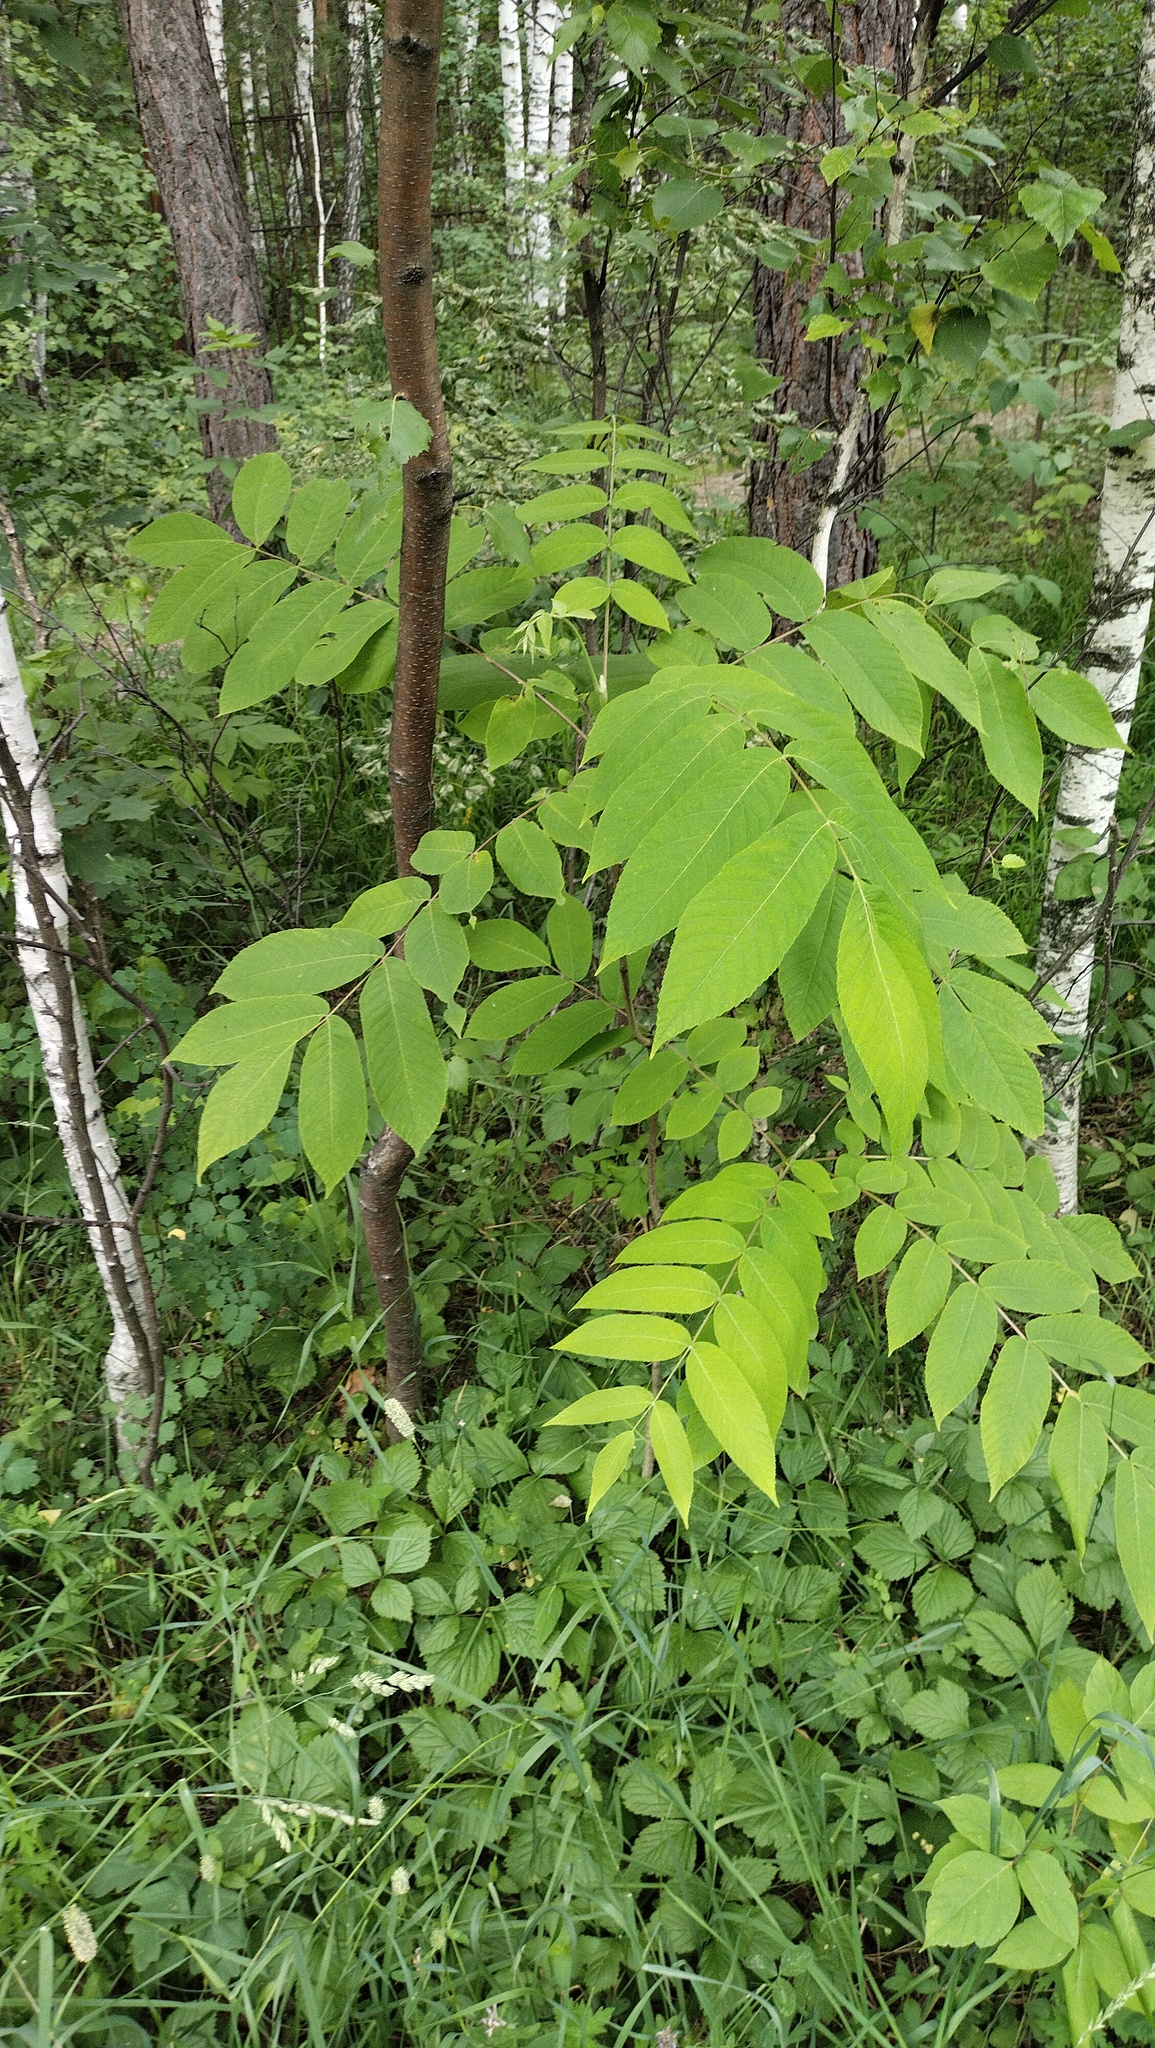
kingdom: Plantae
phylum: Tracheophyta
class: Magnoliopsida
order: Fagales
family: Juglandaceae
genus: Juglans
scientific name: Juglans mandshurica
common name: Manchurian walnut
